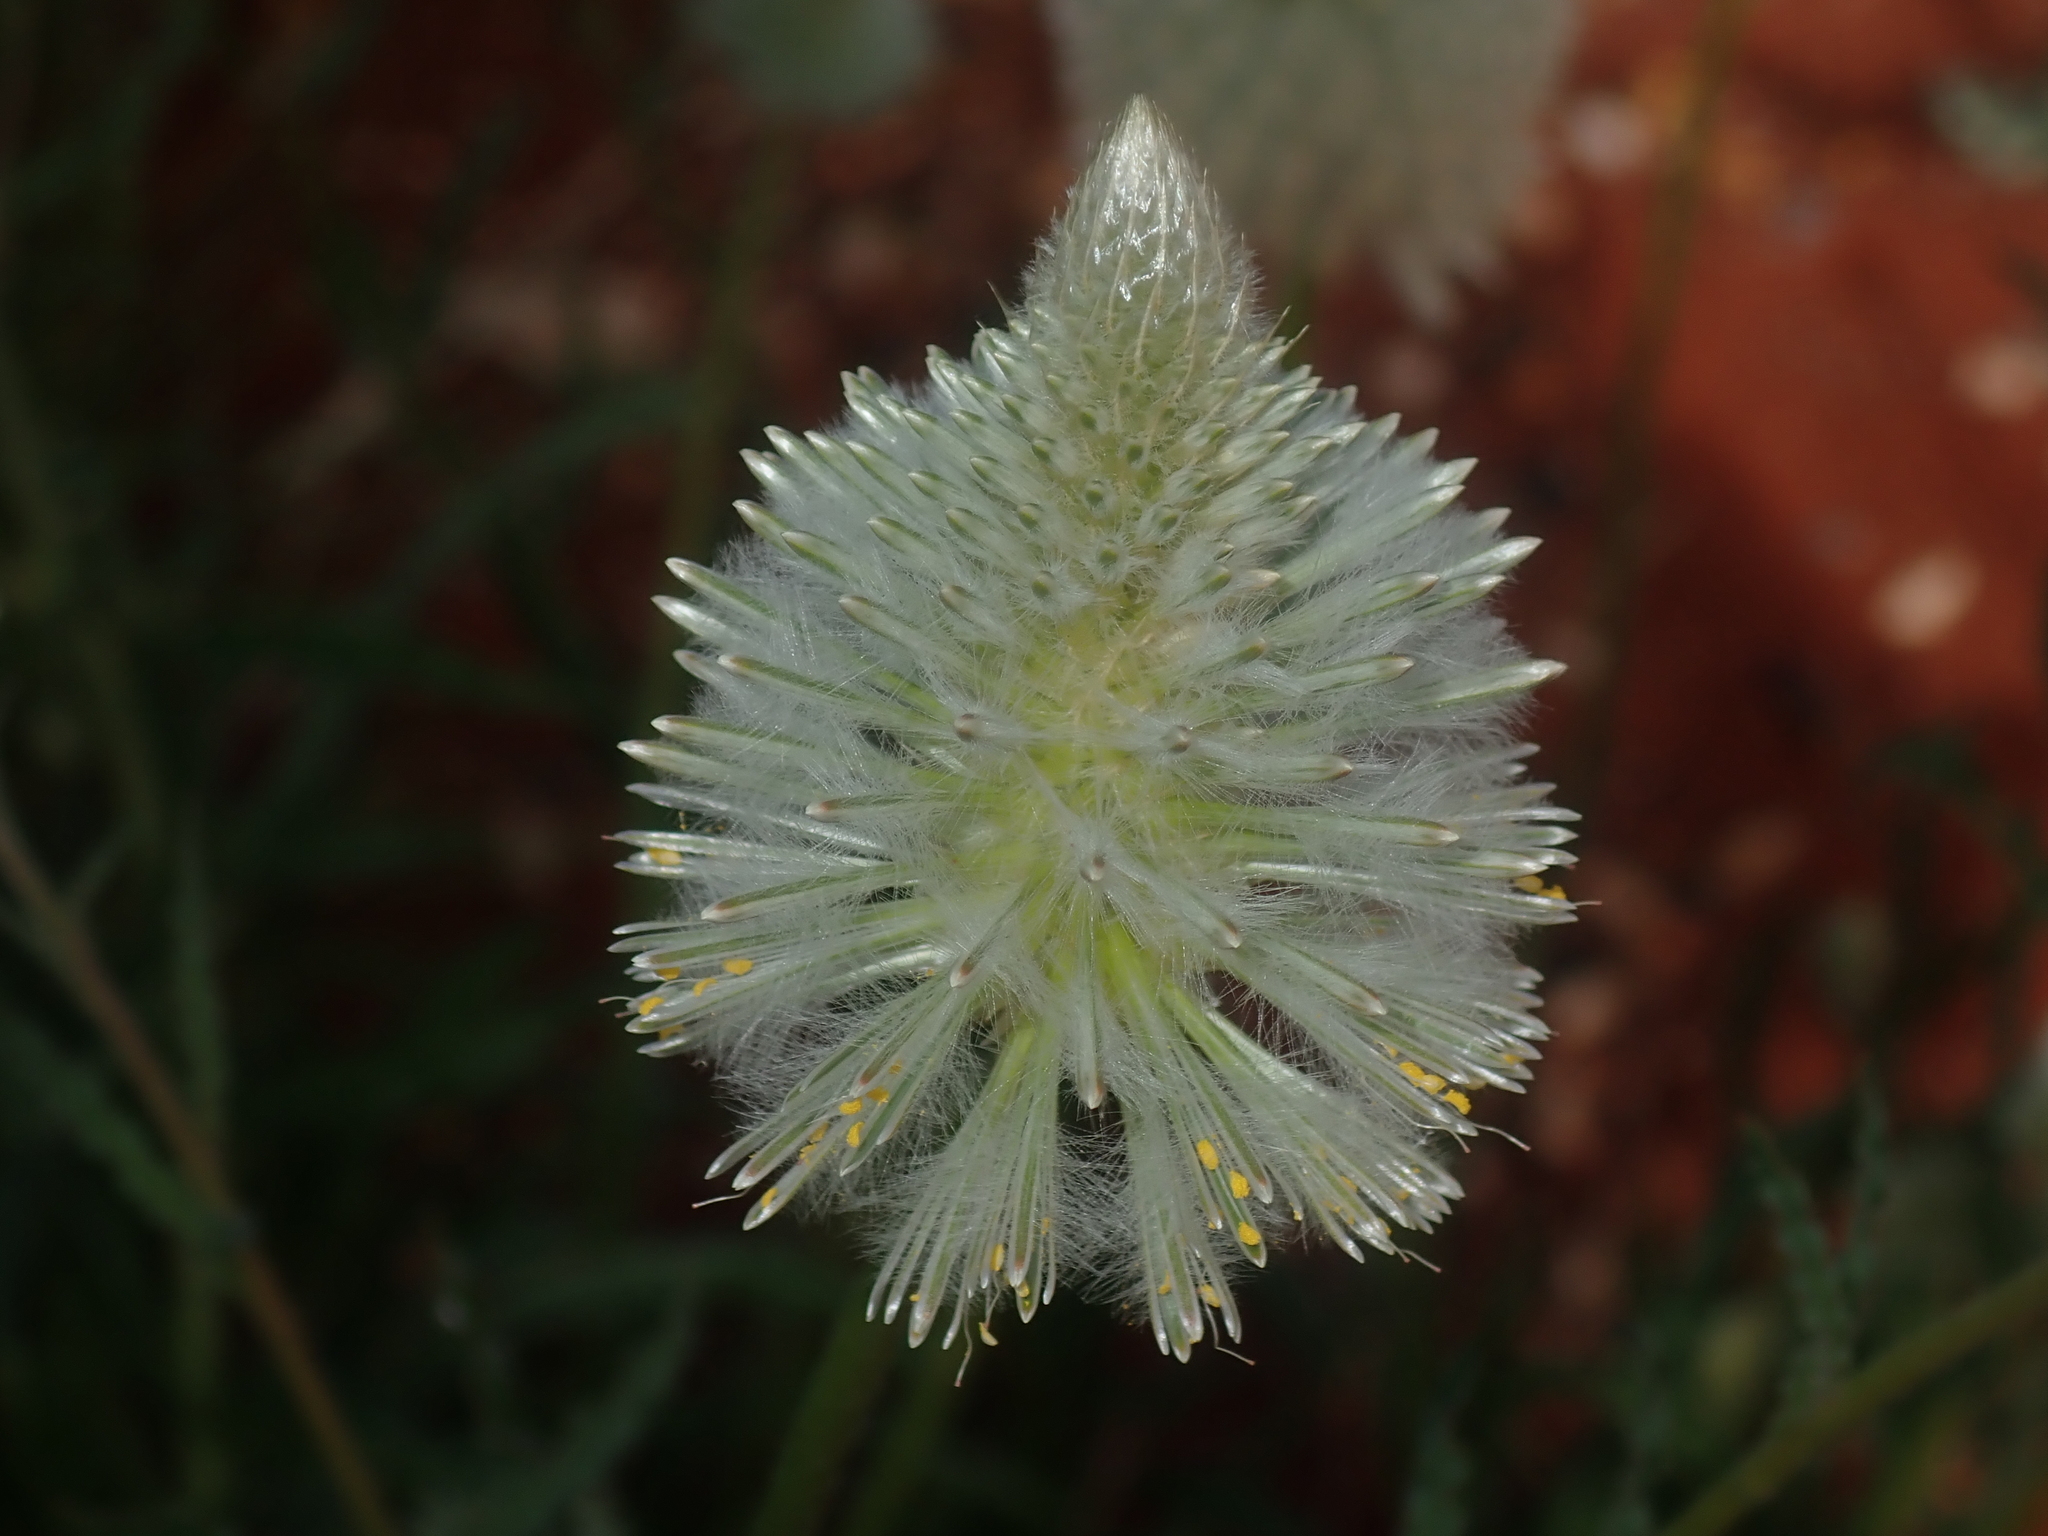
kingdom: Plantae
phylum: Tracheophyta
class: Magnoliopsida
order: Caryophyllales
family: Amaranthaceae
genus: Ptilotus
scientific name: Ptilotus xerophilus
